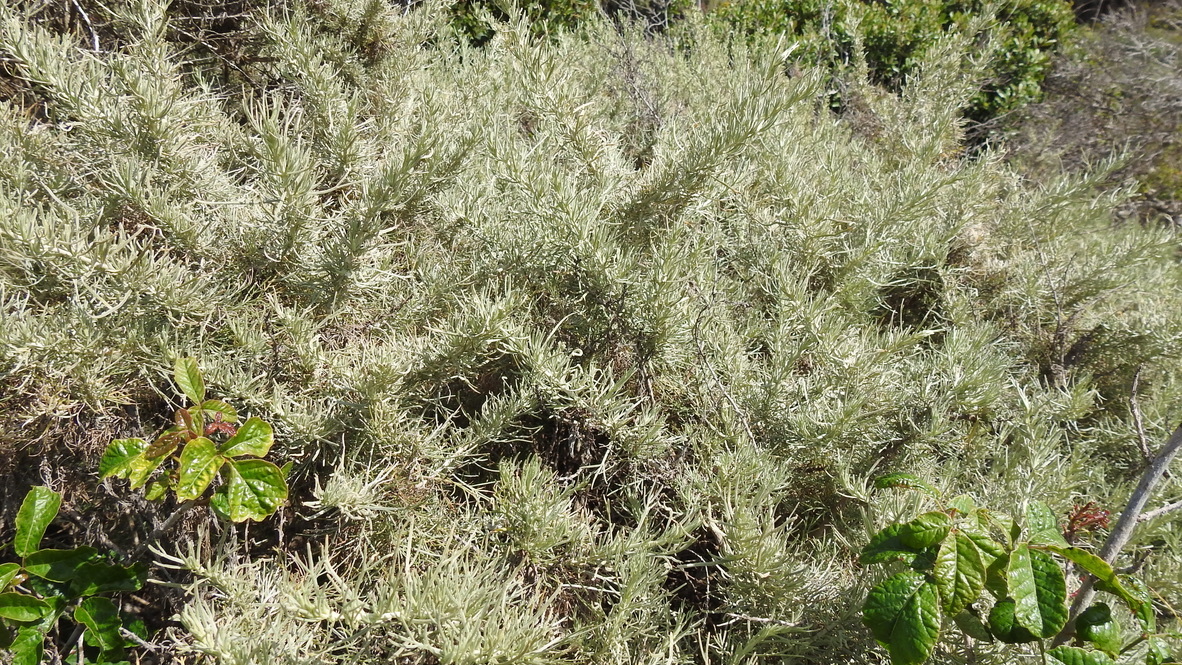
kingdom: Plantae
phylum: Tracheophyta
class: Magnoliopsida
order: Asterales
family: Asteraceae
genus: Artemisia
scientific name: Artemisia californica
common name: California sagebrush
